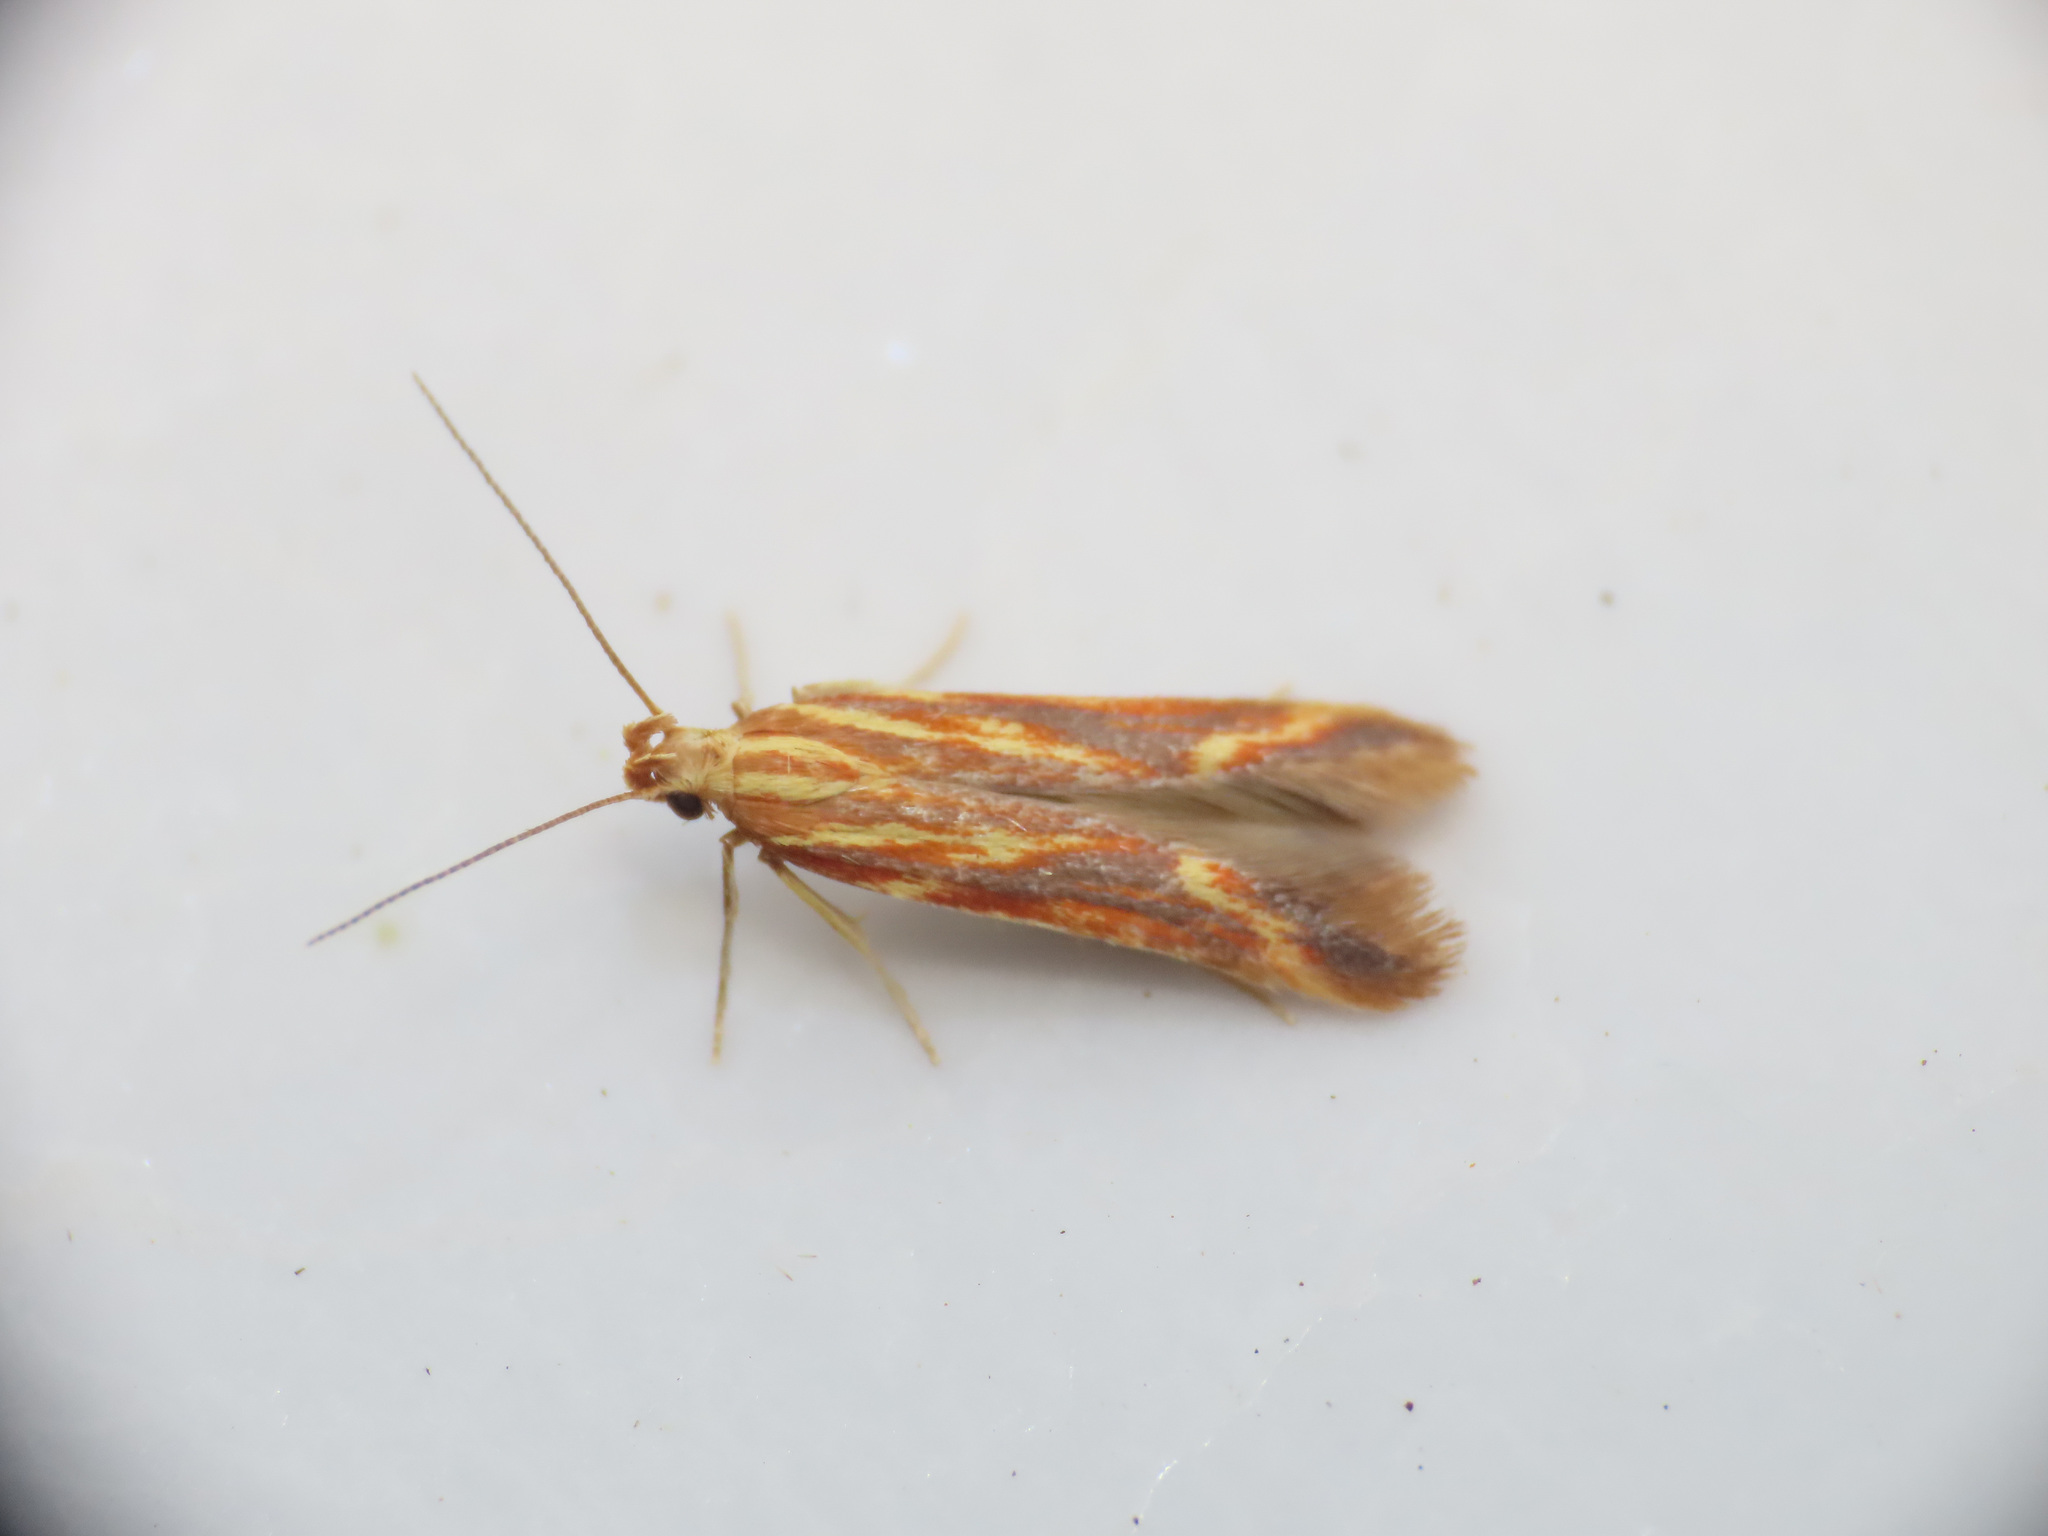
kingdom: Animalia
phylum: Arthropoda
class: Insecta
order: Lepidoptera
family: Gelechiidae
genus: Metzneria
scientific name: Metzneria aprilella
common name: Brilliant neb
